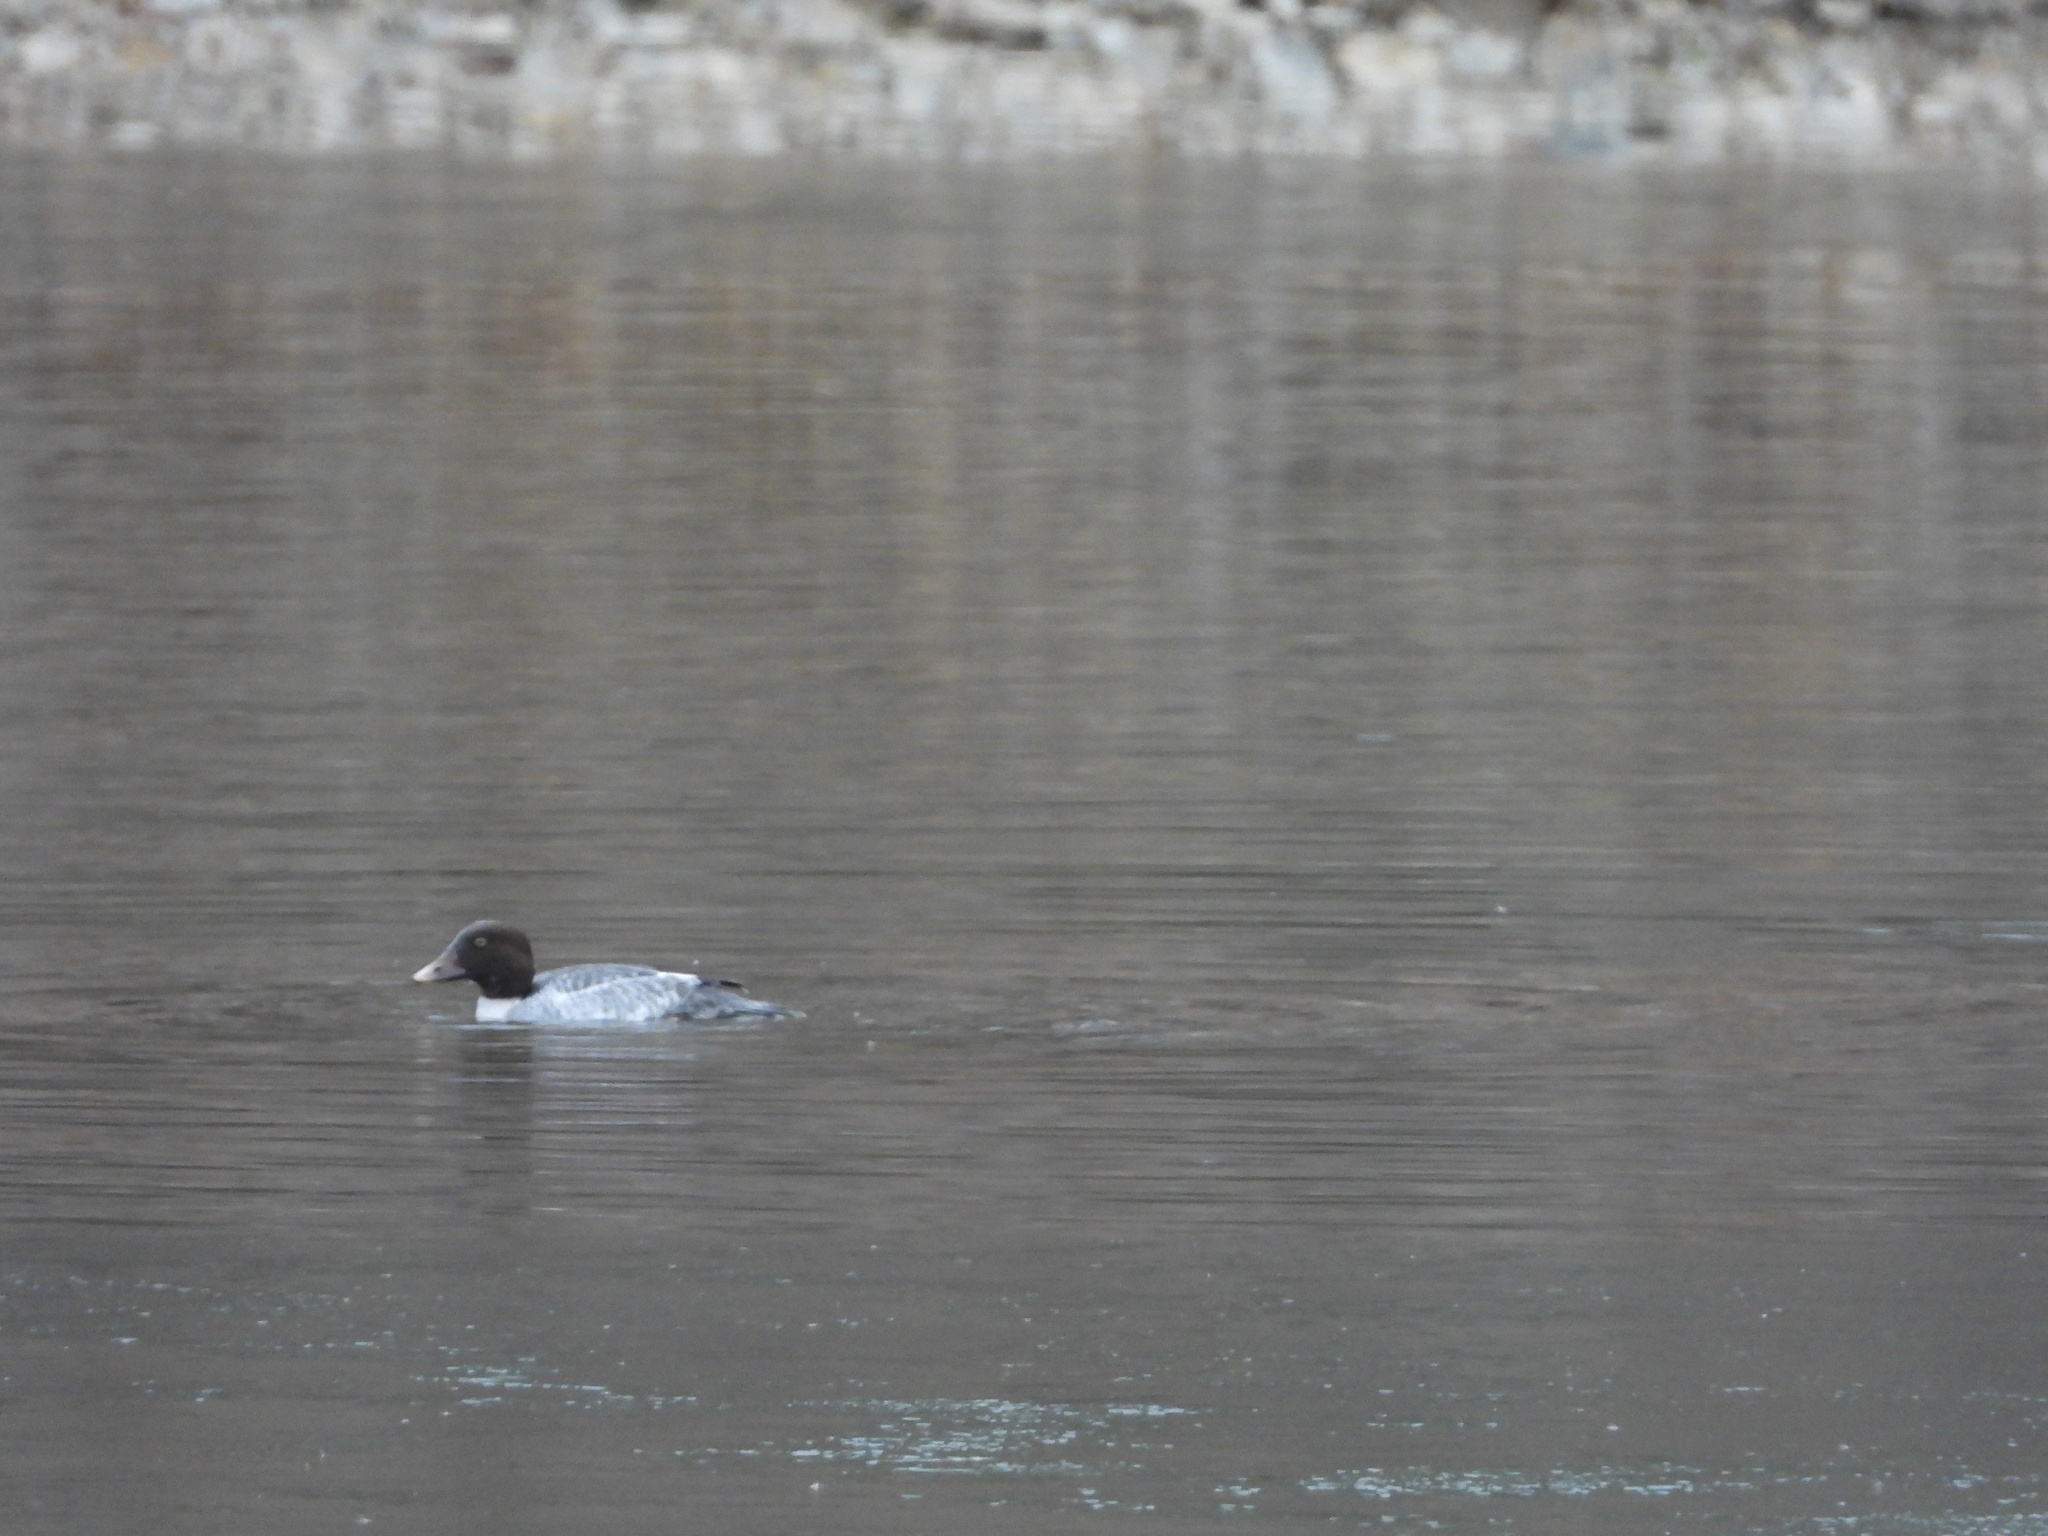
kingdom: Animalia
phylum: Chordata
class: Aves
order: Anseriformes
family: Anatidae
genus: Bucephala
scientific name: Bucephala clangula
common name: Common goldeneye
